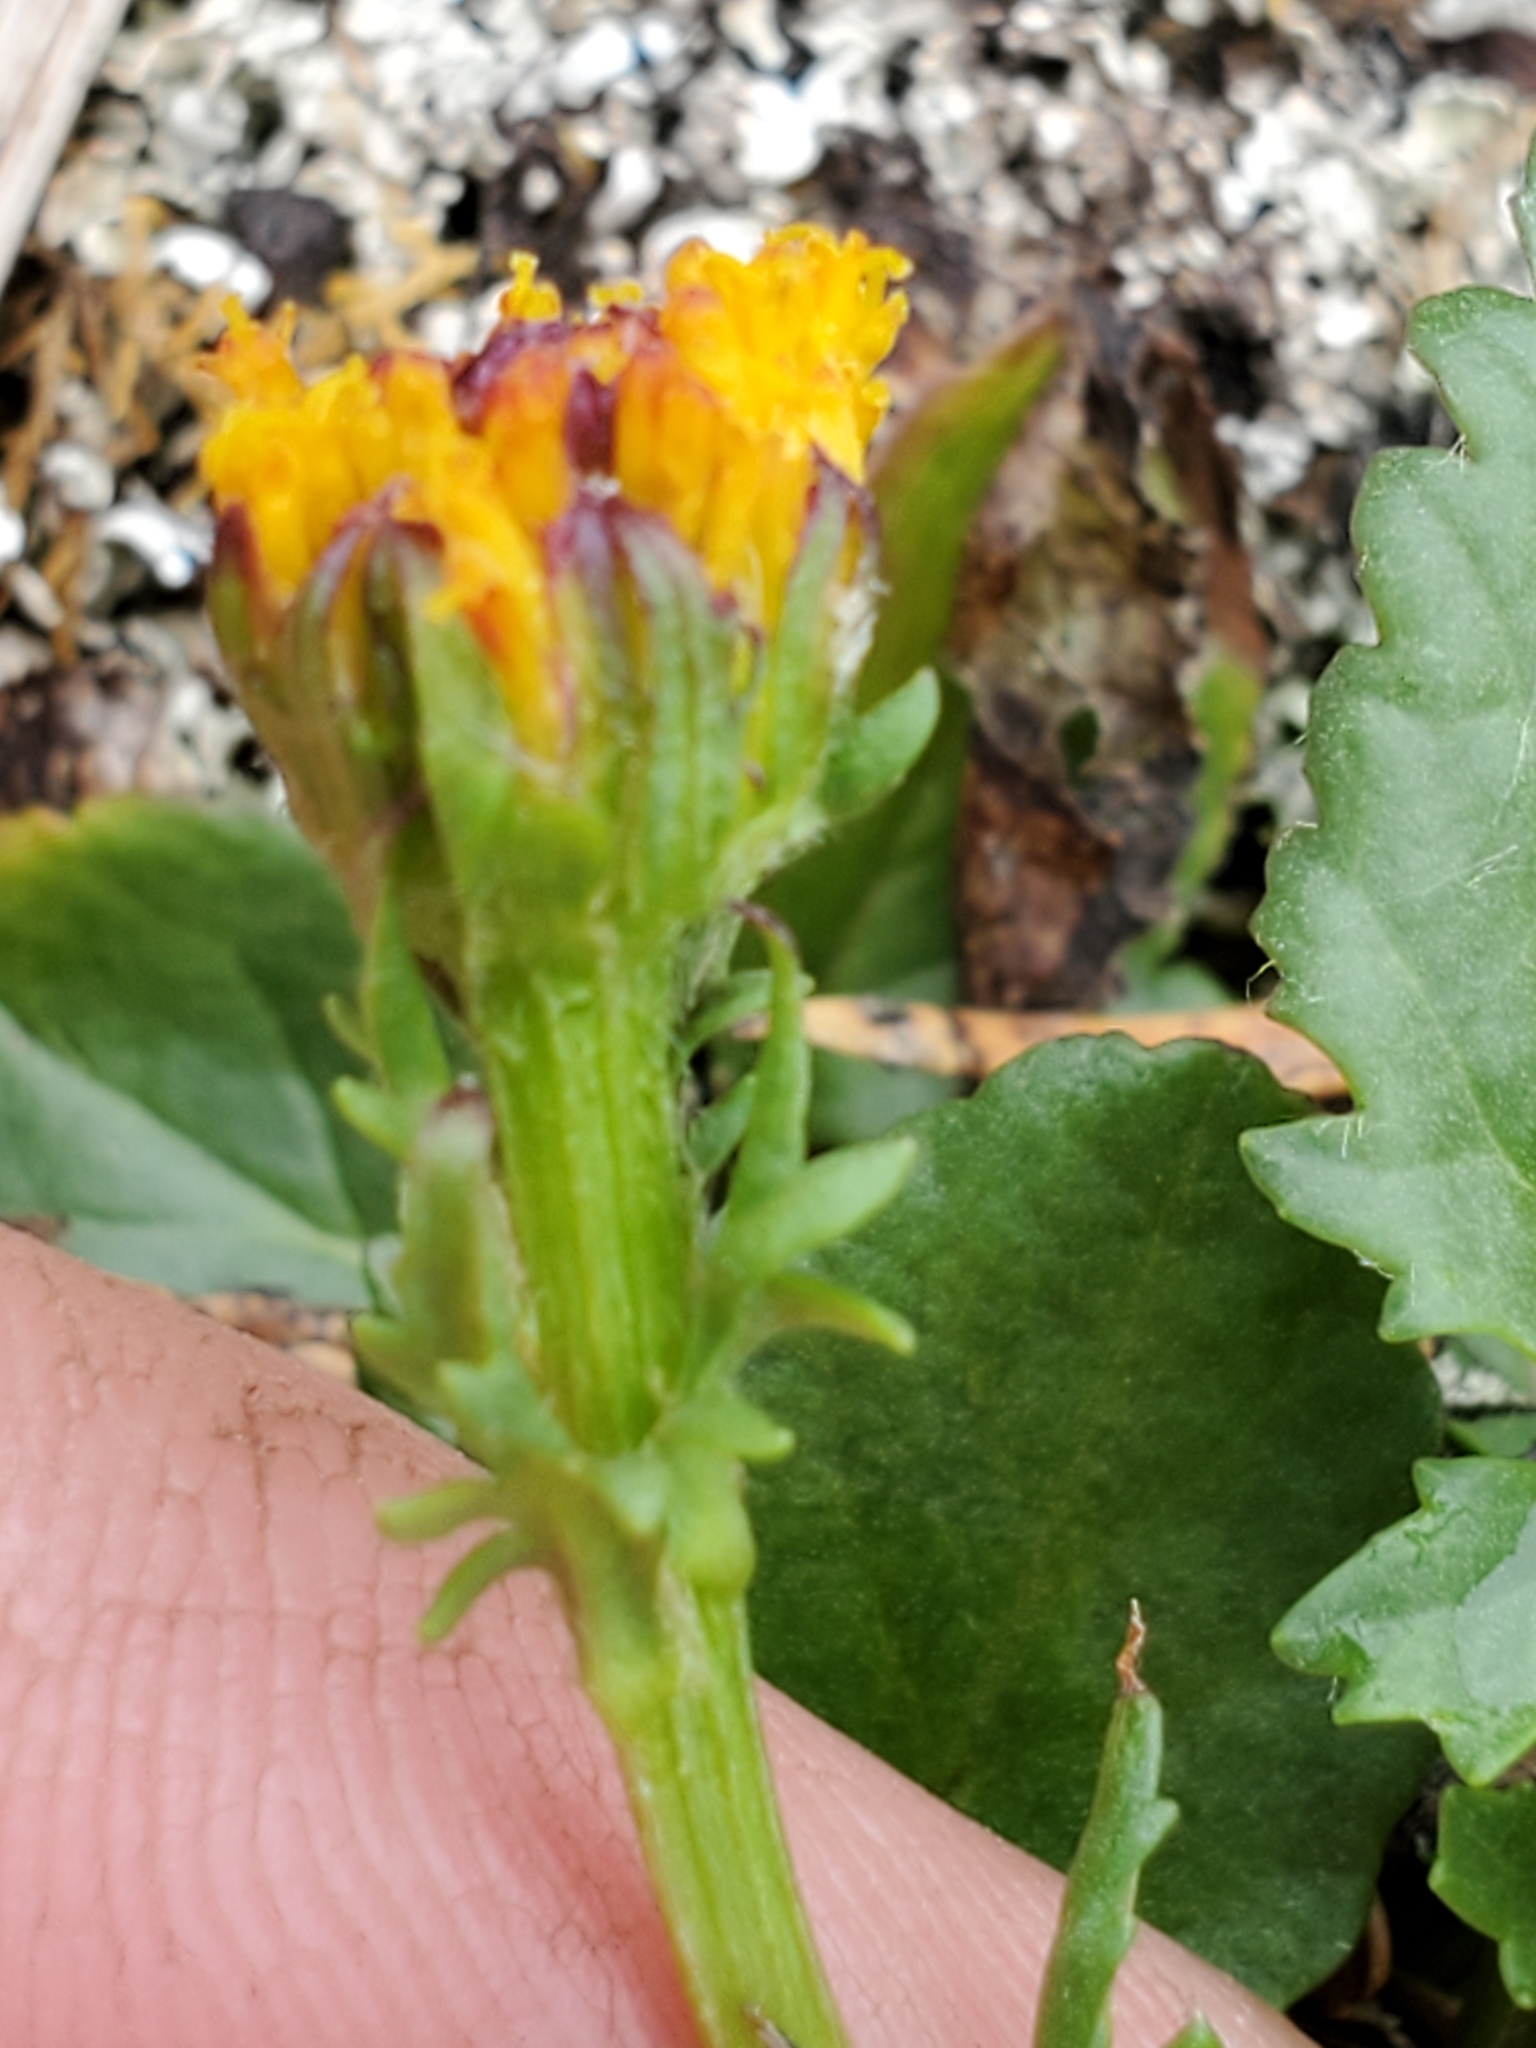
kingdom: Plantae
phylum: Tracheophyta
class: Magnoliopsida
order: Asterales
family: Asteraceae
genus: Packera
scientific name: Packera pauciflora
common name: Alpine groundsel
